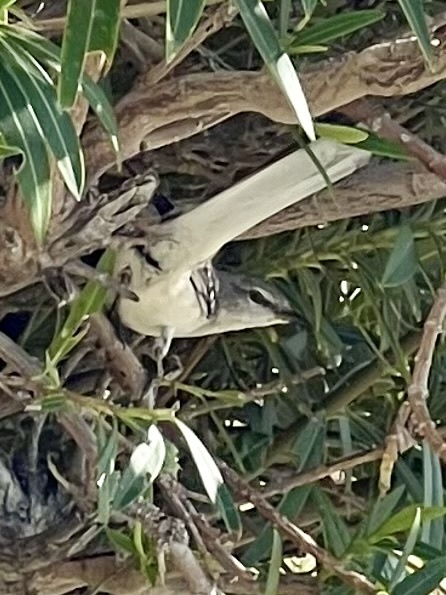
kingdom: Animalia
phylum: Chordata
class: Aves
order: Passeriformes
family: Mimidae
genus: Mimus
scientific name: Mimus polyglottos
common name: Northern mockingbird
